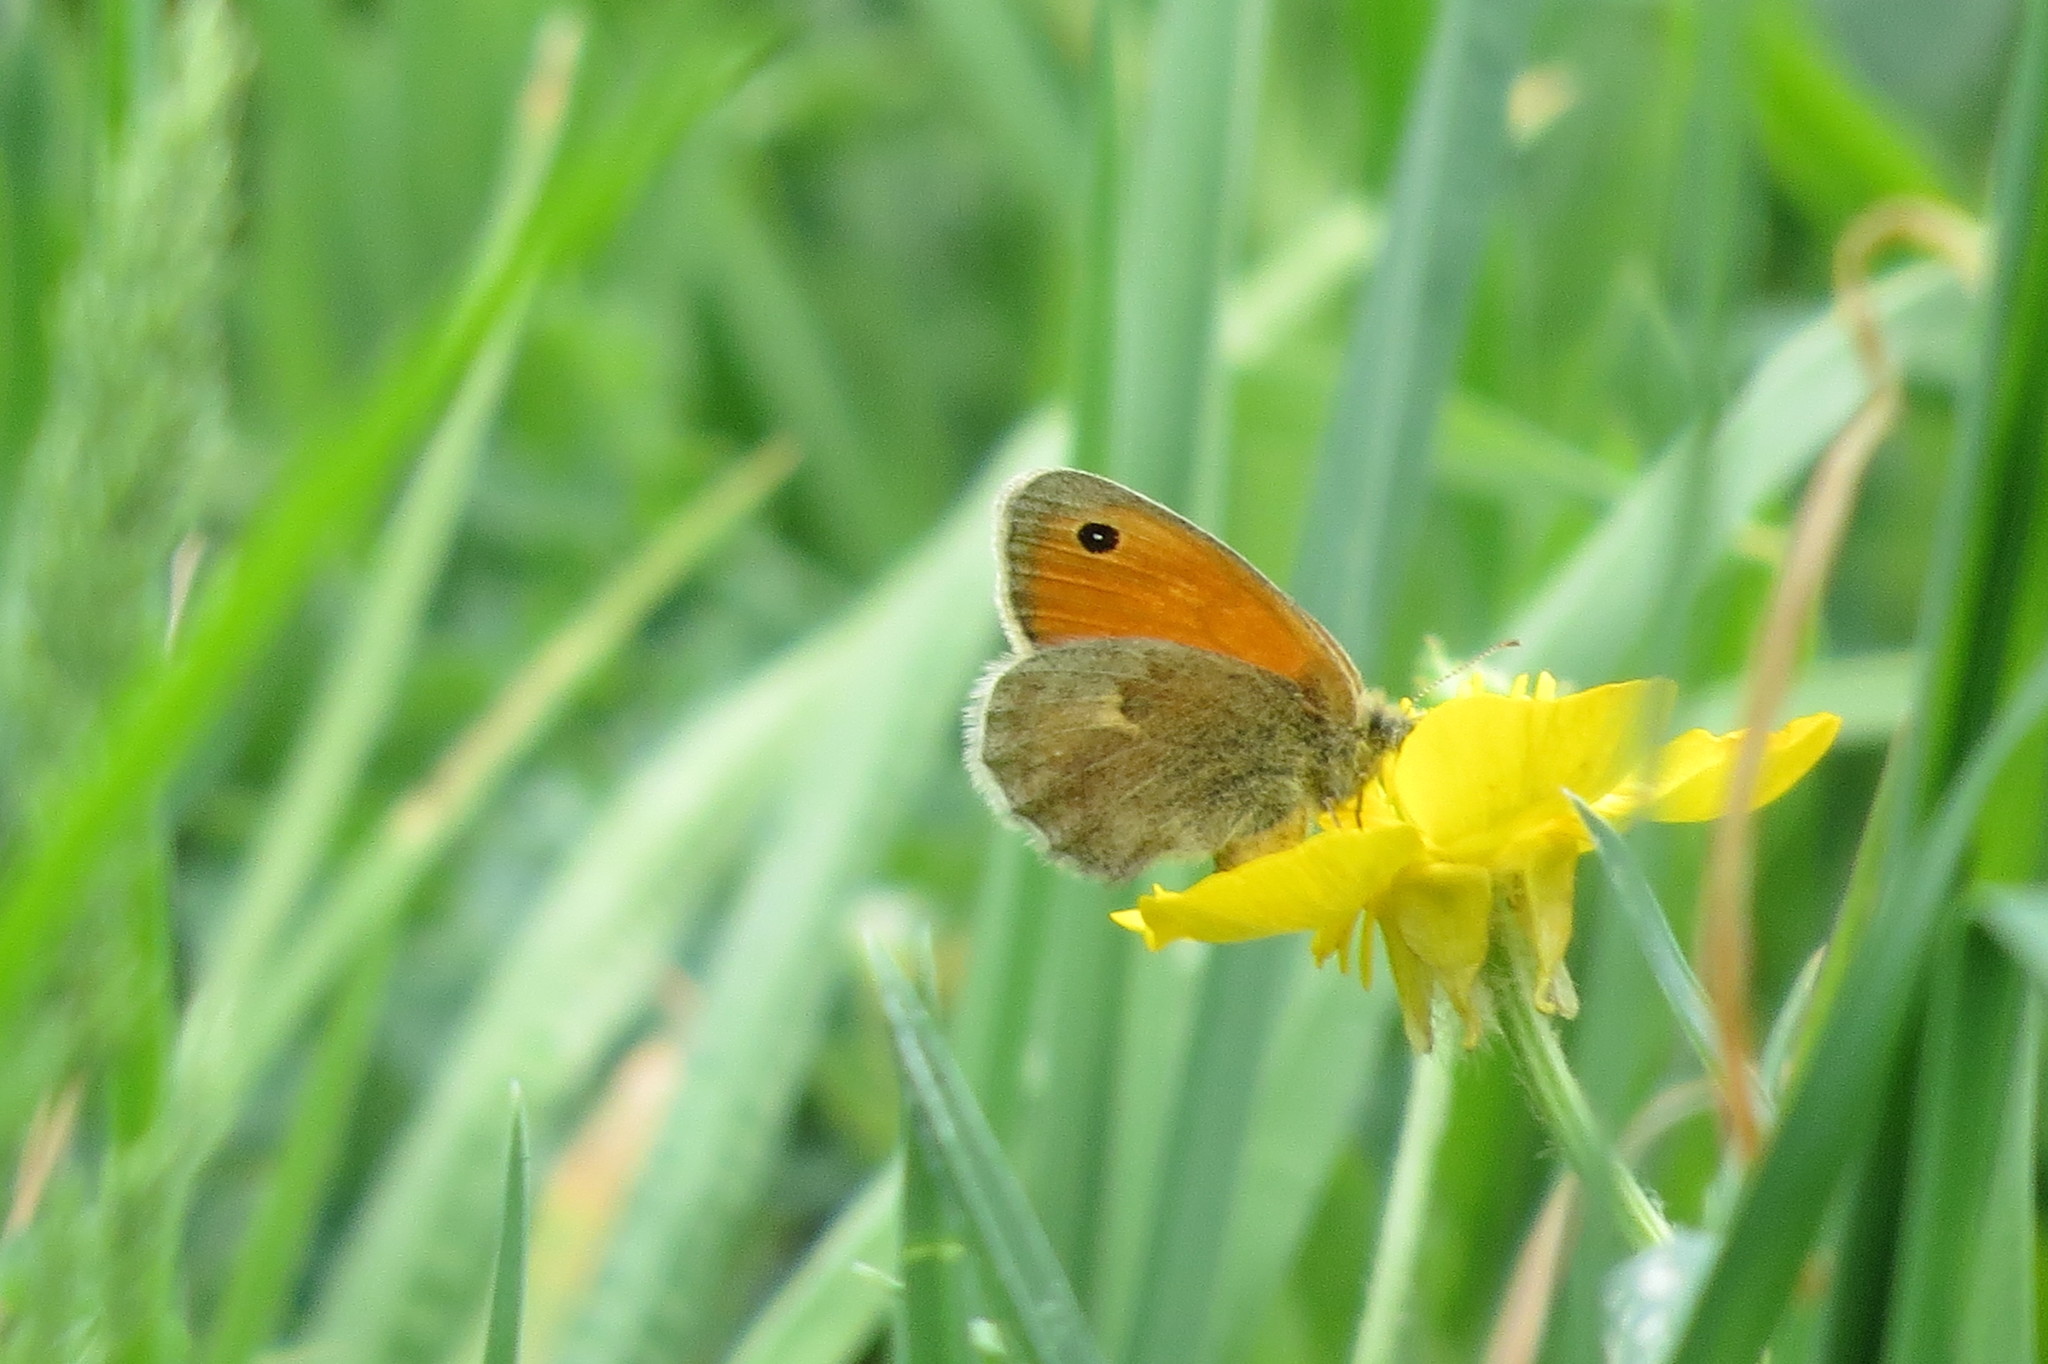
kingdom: Animalia
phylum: Arthropoda
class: Insecta
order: Lepidoptera
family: Nymphalidae
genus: Coenonympha
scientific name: Coenonympha pamphilus
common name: Small heath
